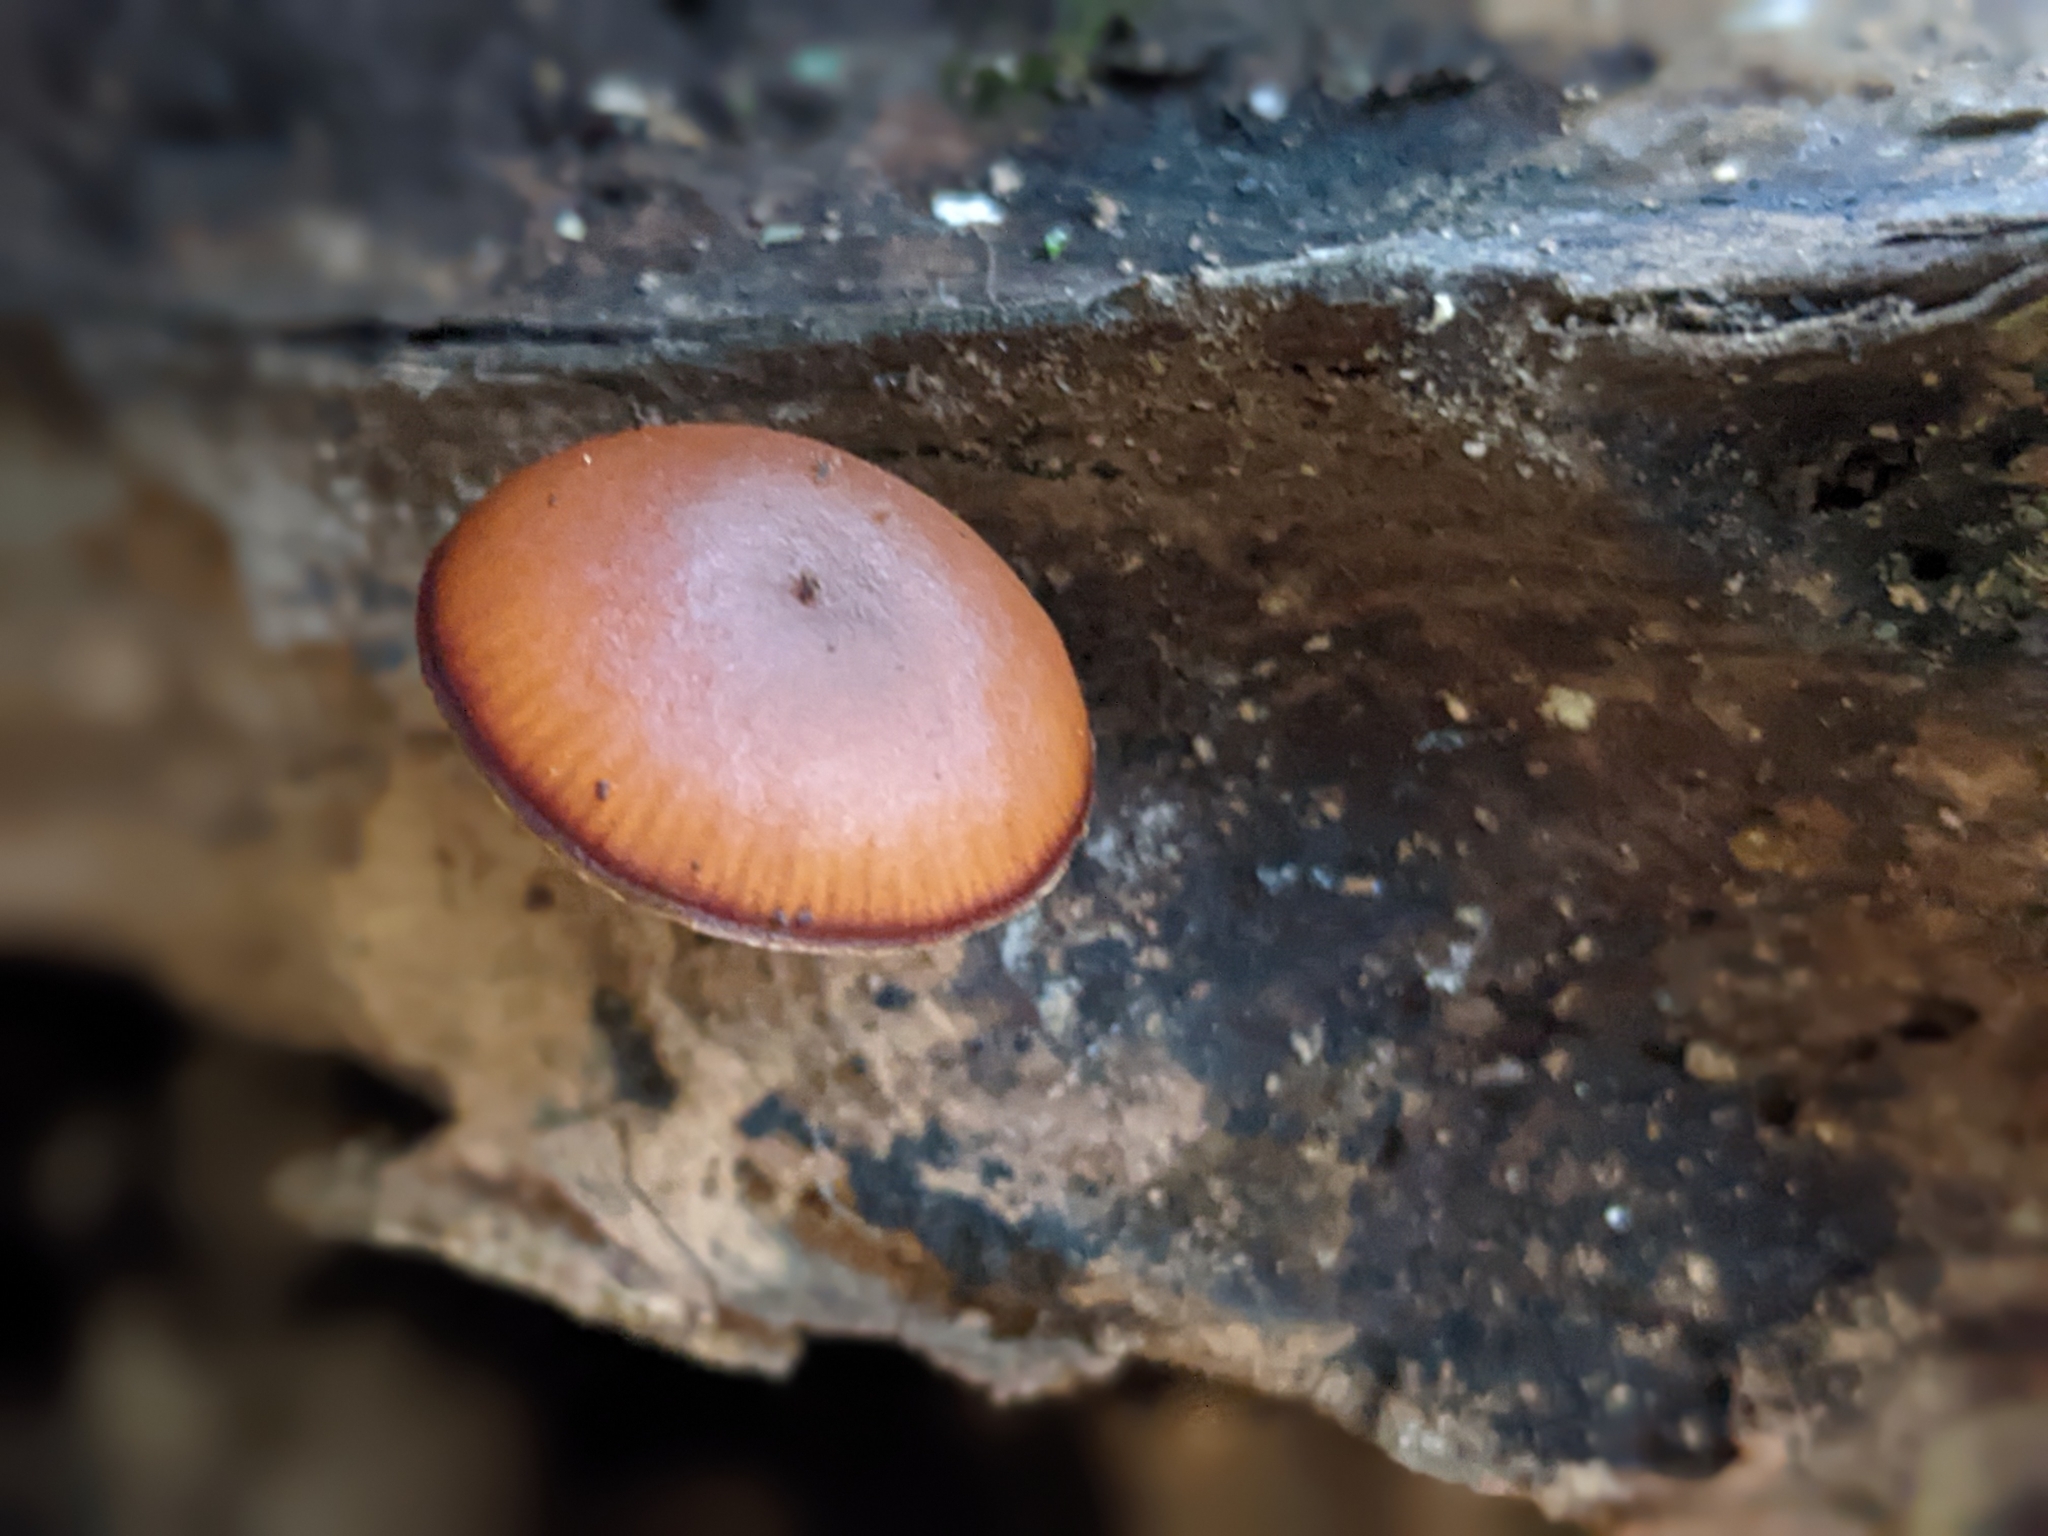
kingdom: Fungi
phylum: Basidiomycota
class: Agaricomycetes
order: Agaricales
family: Hymenogastraceae
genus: Galerina
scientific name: Galerina marginata
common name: Funeral bell
